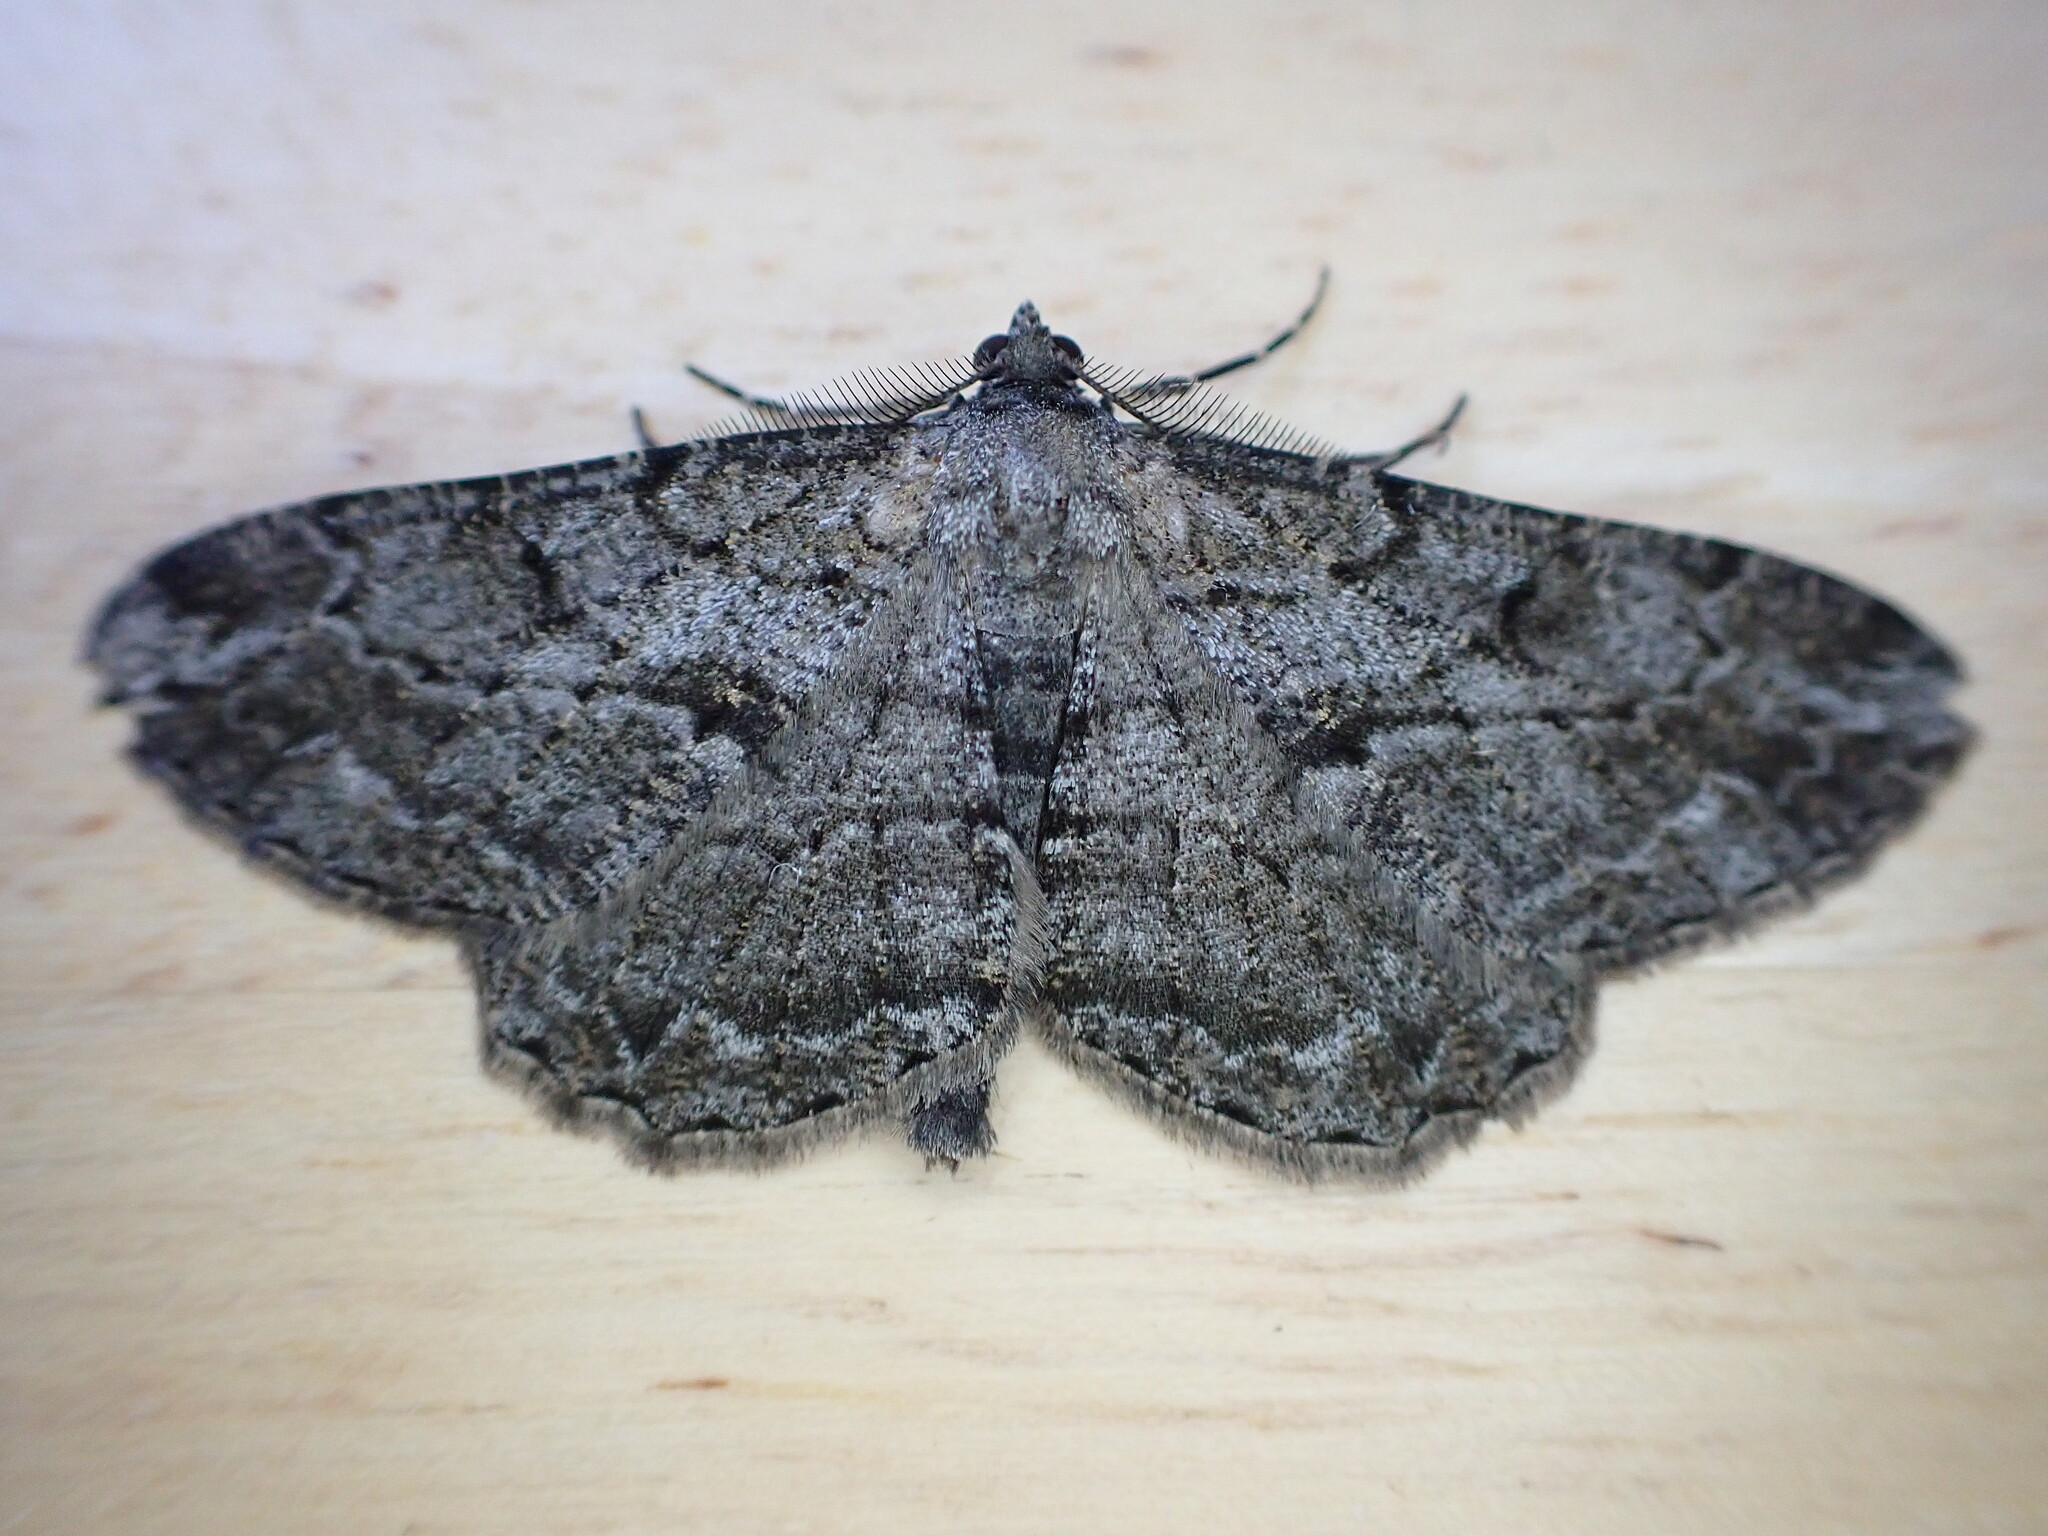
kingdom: Animalia
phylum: Arthropoda
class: Insecta
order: Lepidoptera
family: Geometridae
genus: Peribatodes
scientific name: Peribatodes rhomboidaria
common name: Willow beauty
